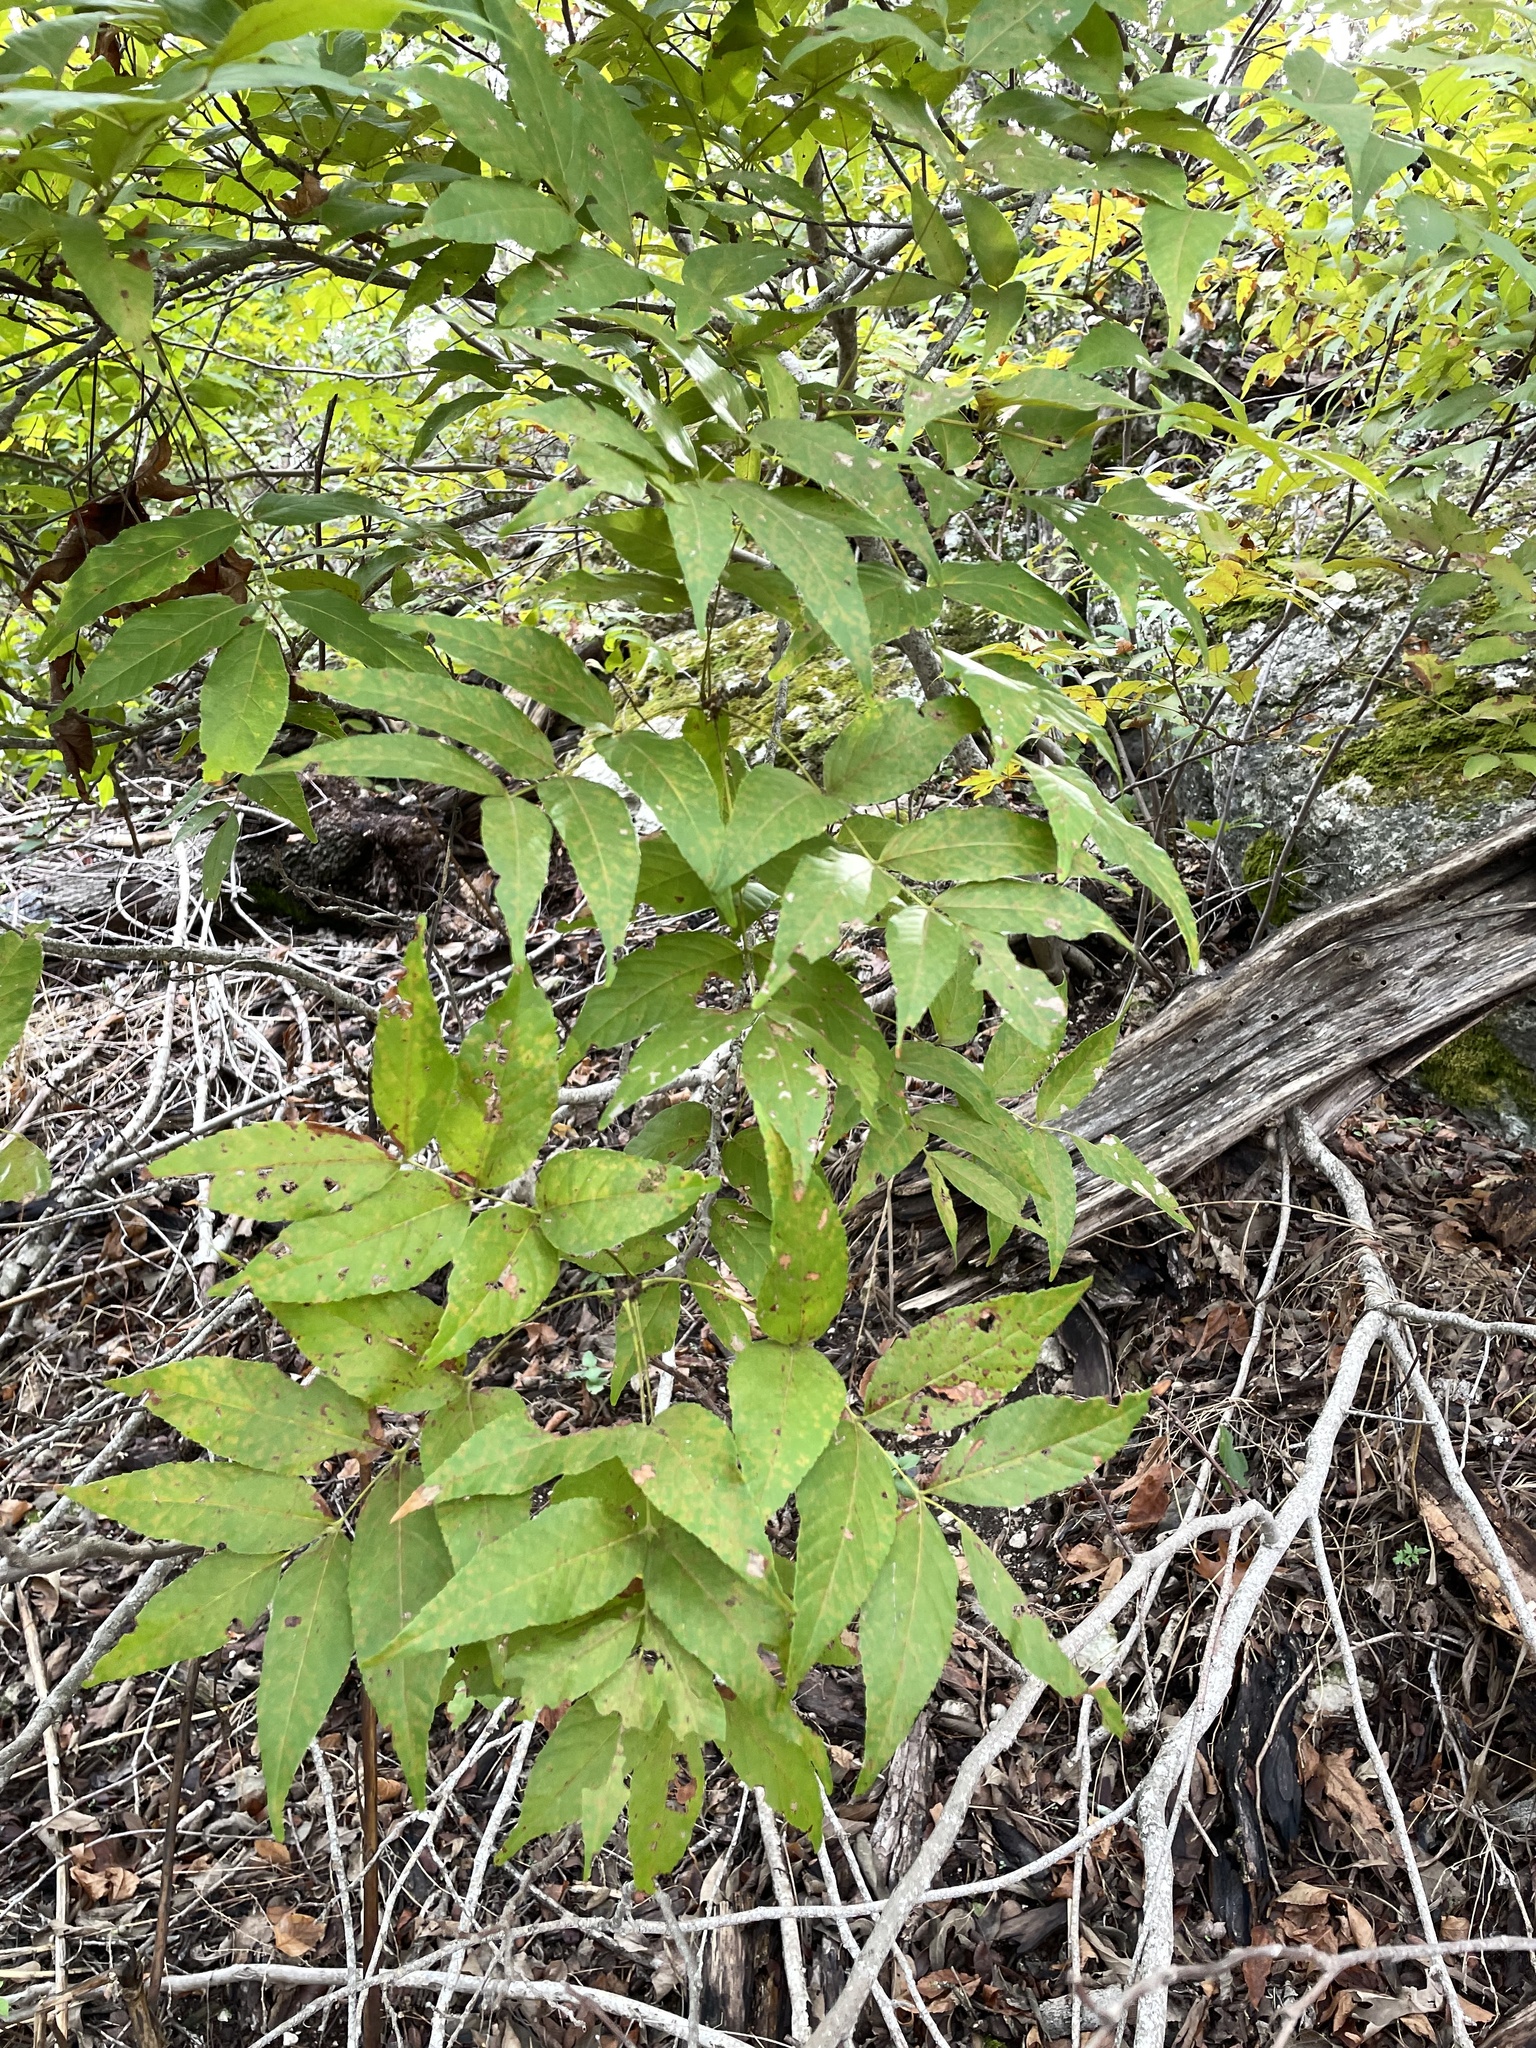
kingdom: Plantae
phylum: Tracheophyta
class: Magnoliopsida
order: Sapindales
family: Sapindaceae
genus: Ungnadia
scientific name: Ungnadia speciosa
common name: Texas-buckeye
